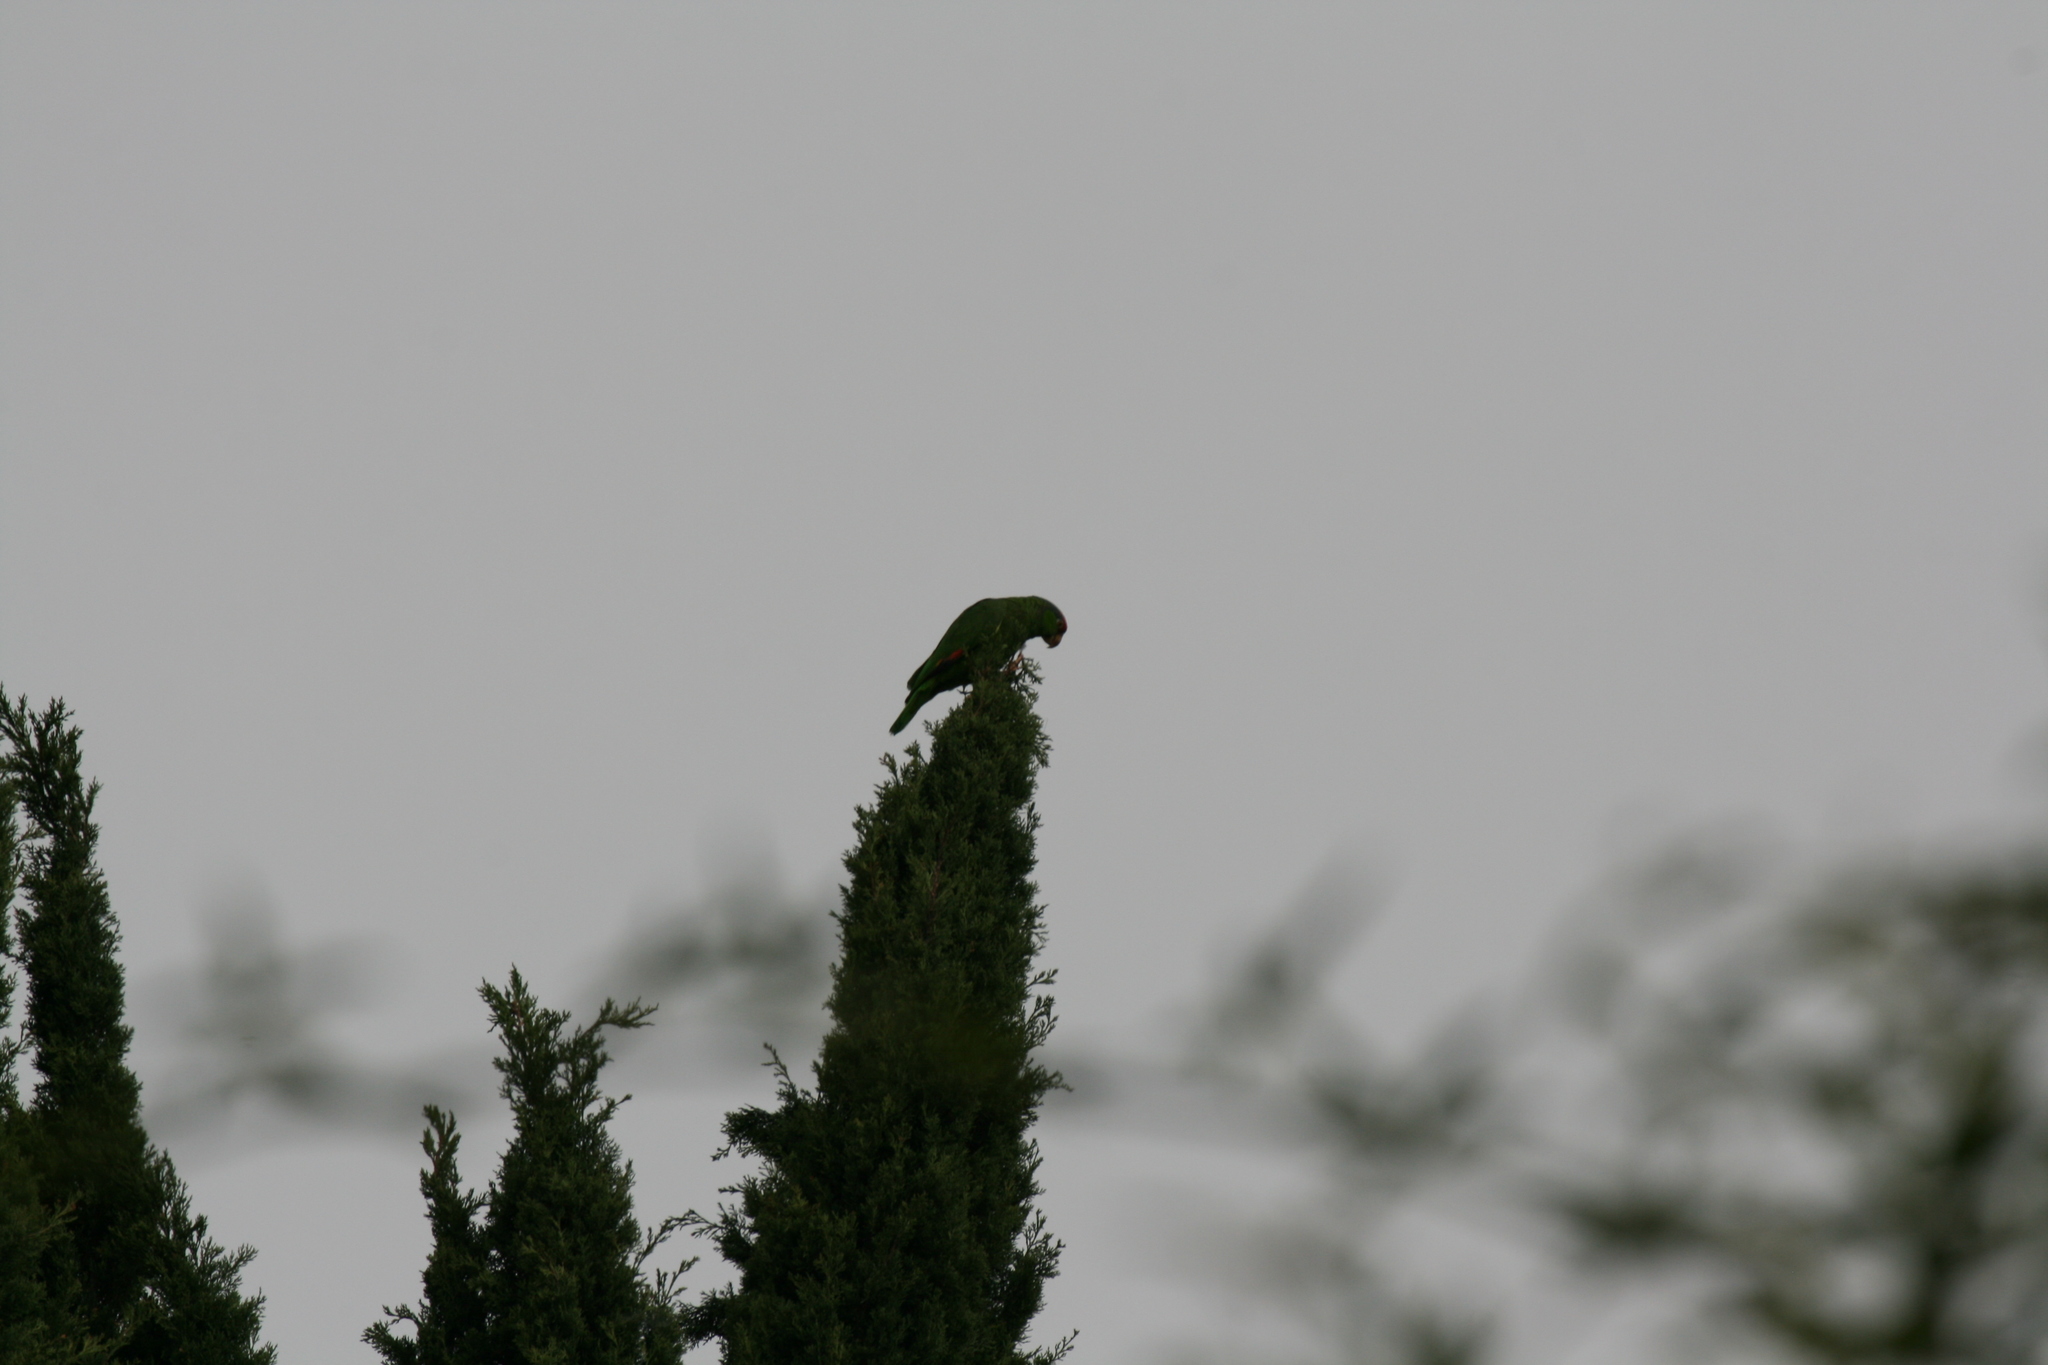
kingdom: Animalia
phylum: Chordata
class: Aves
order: Psittaciformes
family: Psittacidae
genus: Amazona
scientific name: Amazona
